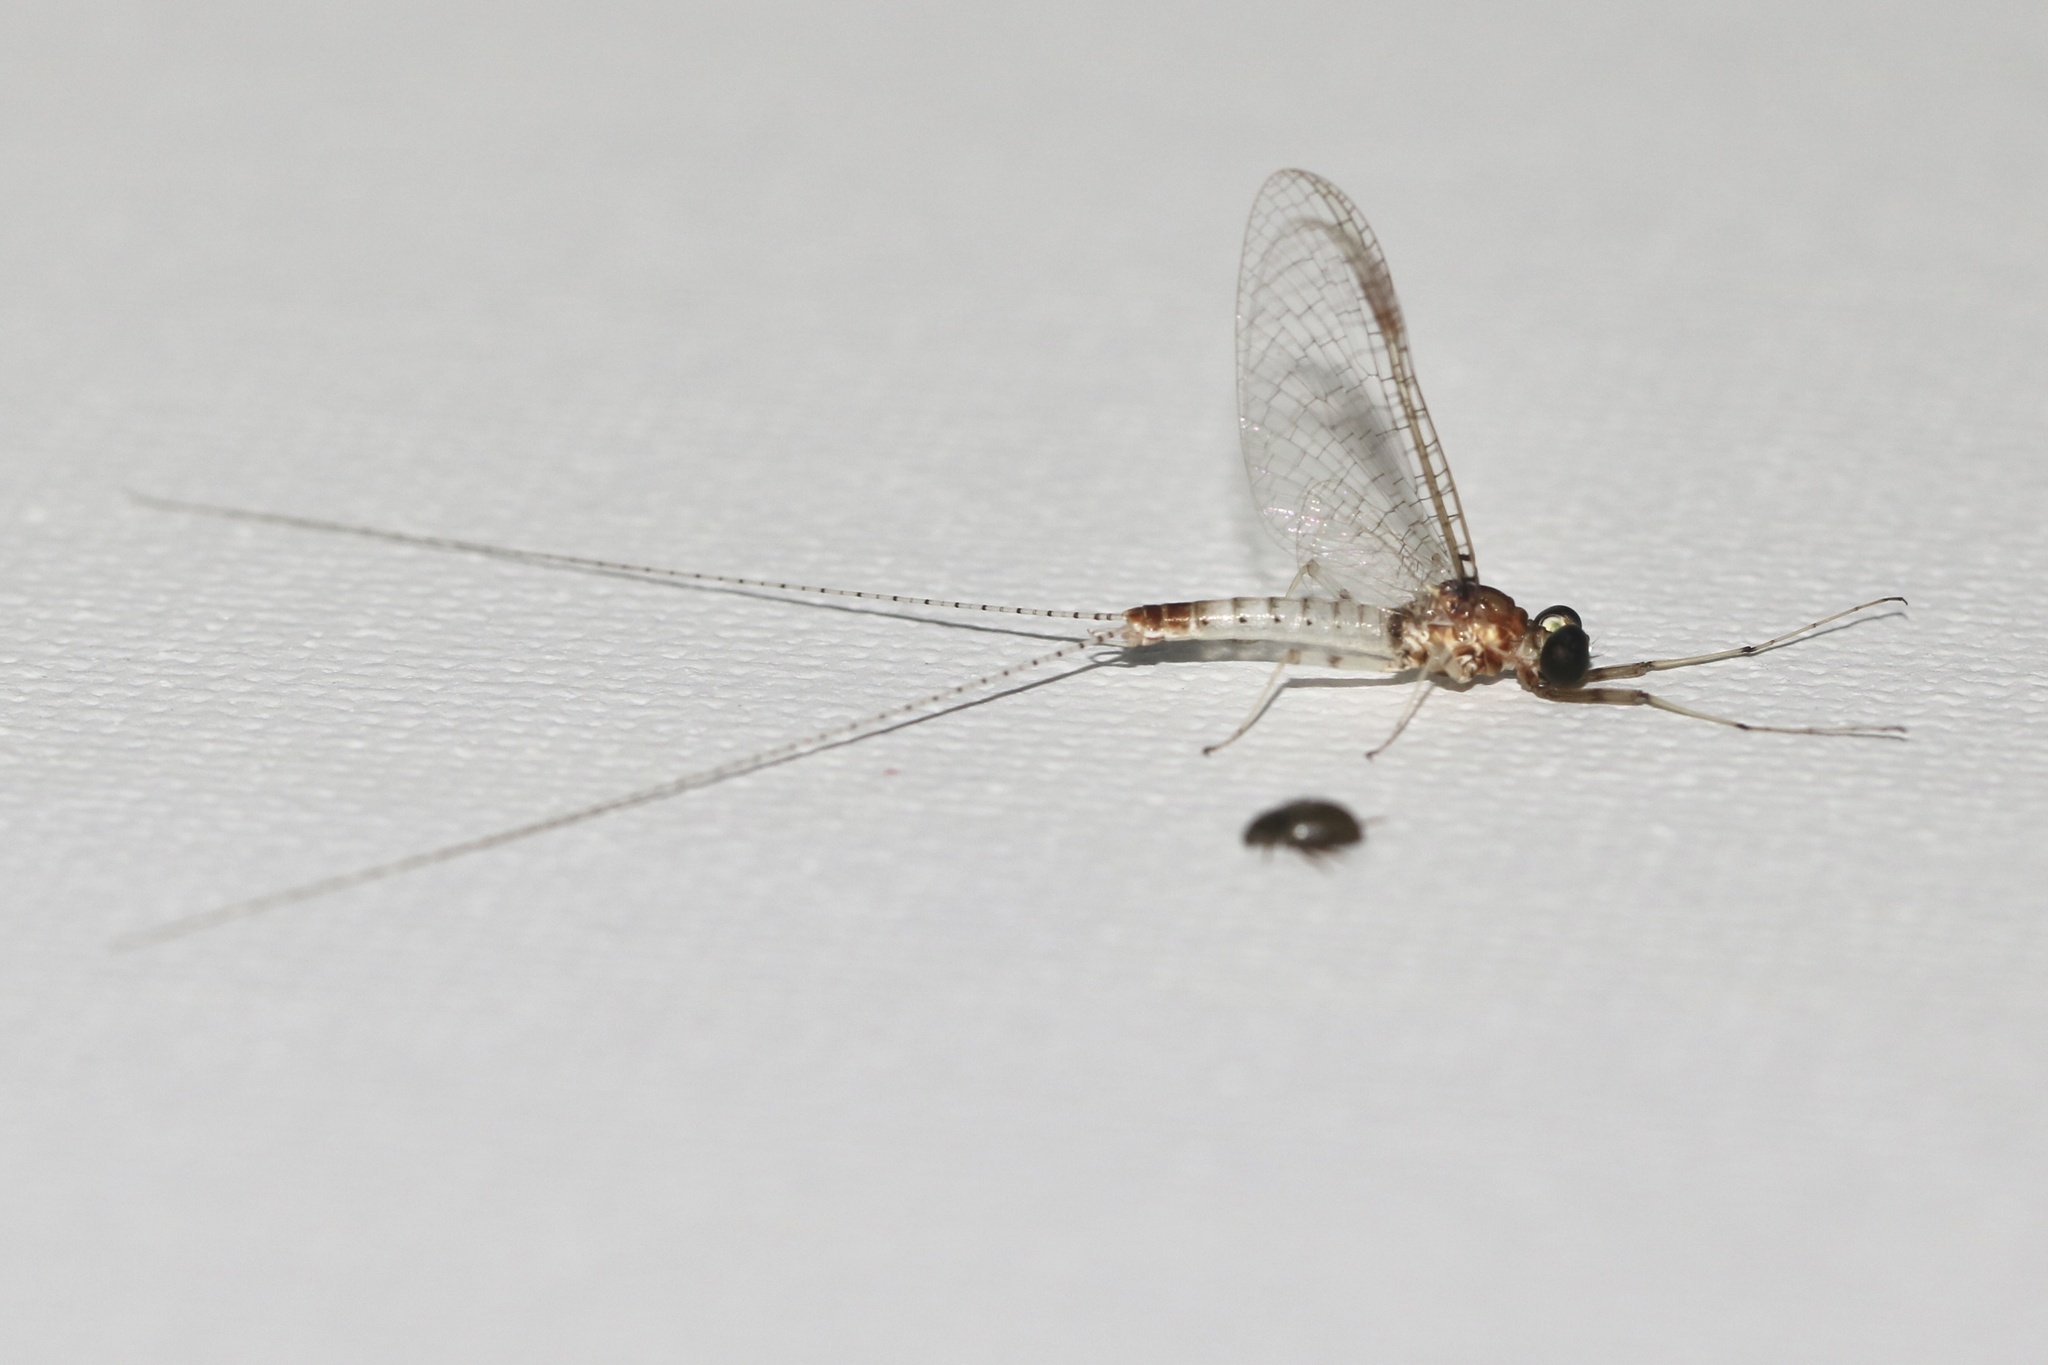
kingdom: Animalia
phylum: Arthropoda
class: Insecta
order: Ephemeroptera
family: Heptageniidae
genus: Maccaffertium
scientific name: Maccaffertium modestum
